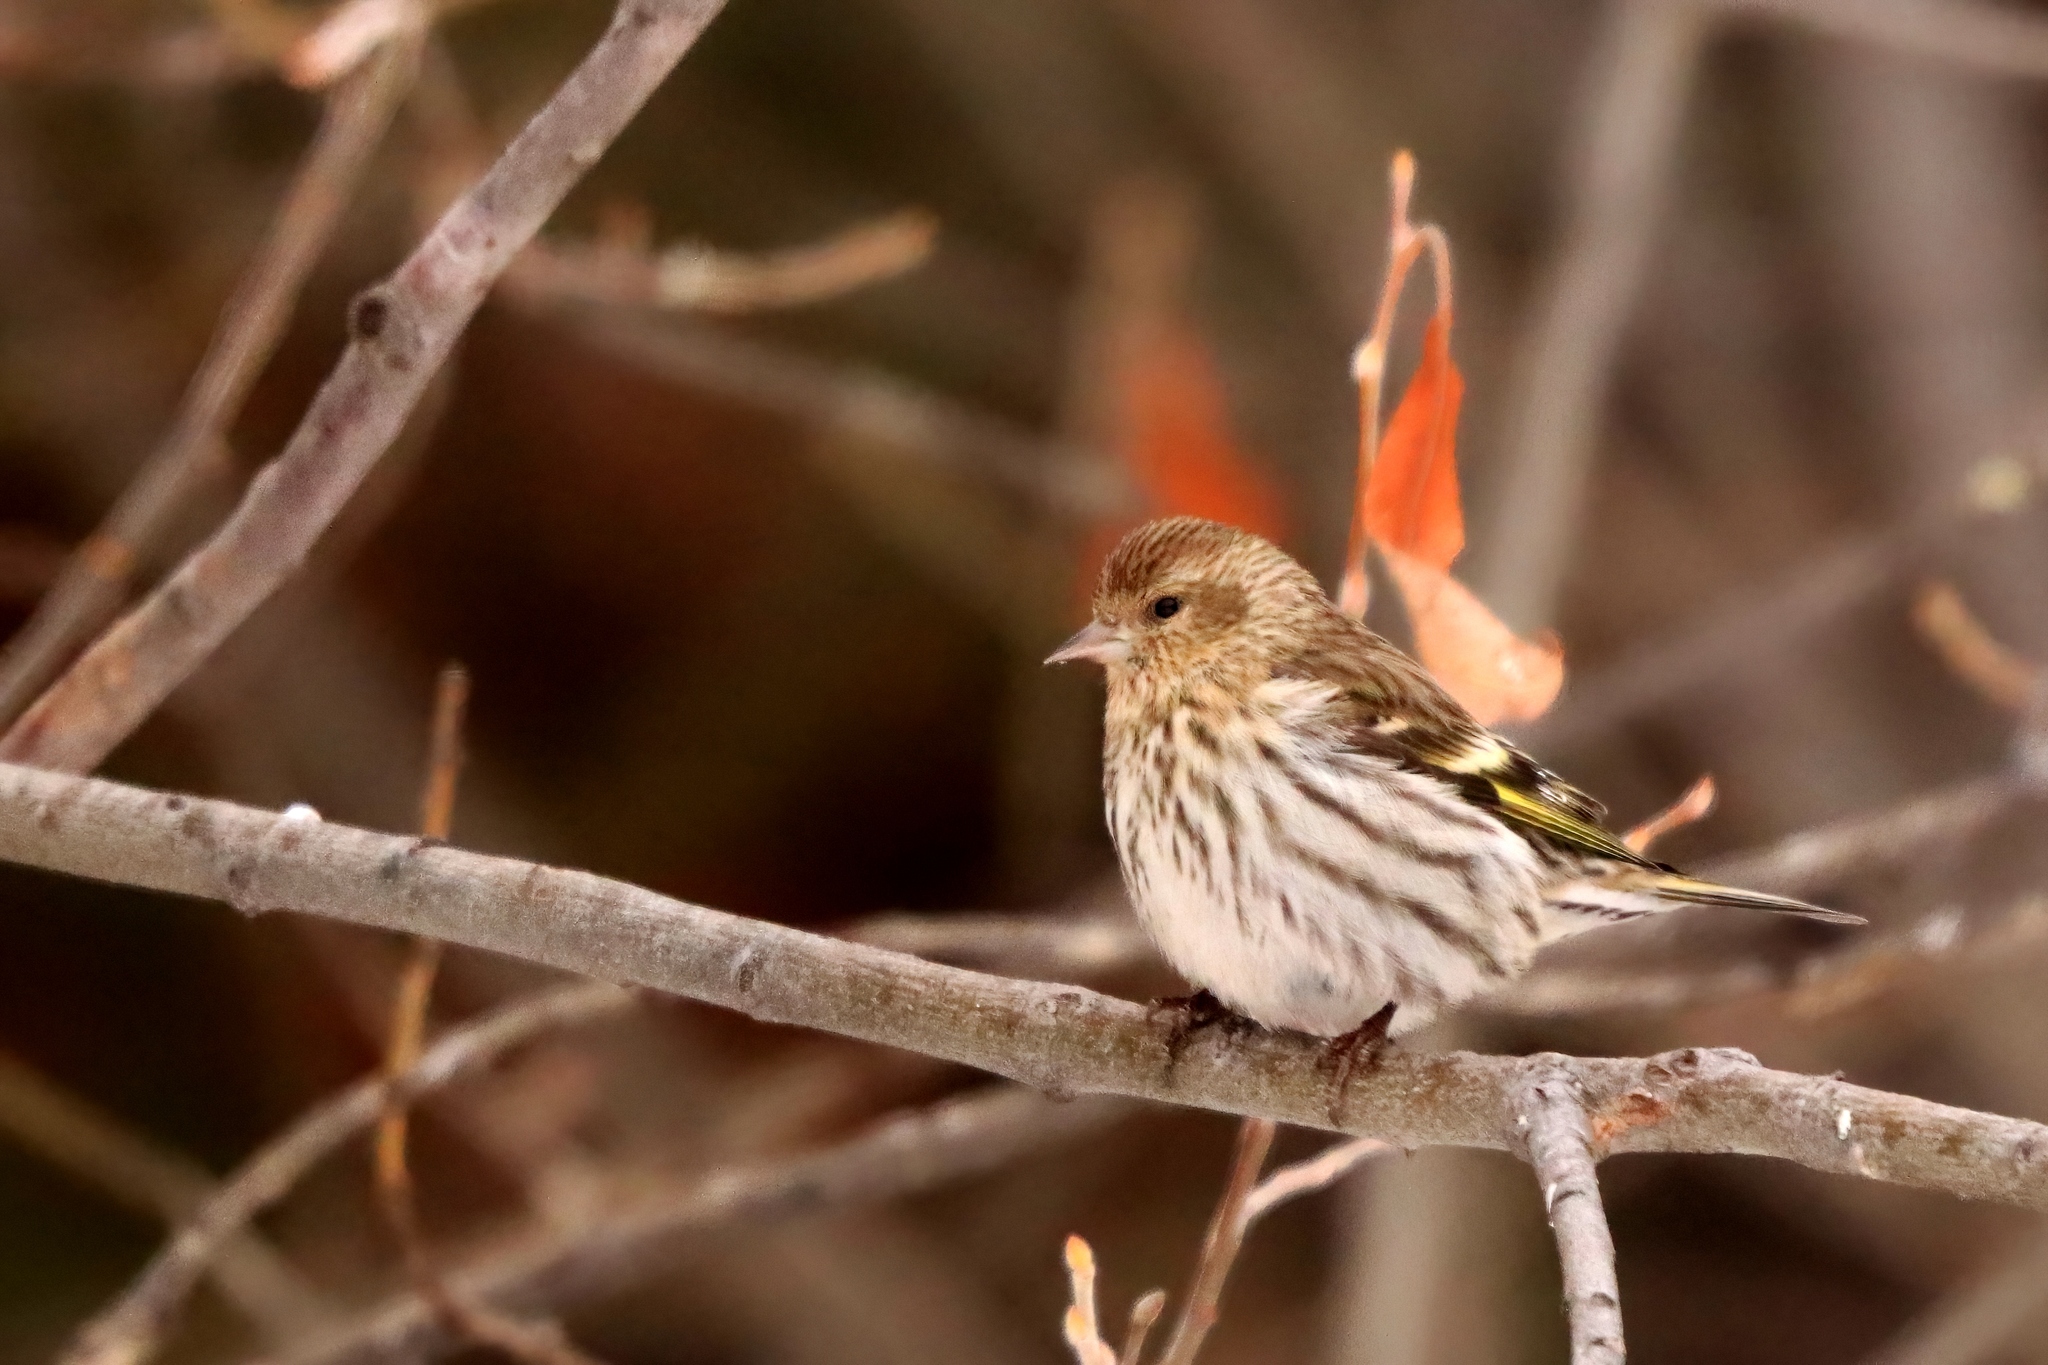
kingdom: Animalia
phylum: Chordata
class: Aves
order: Passeriformes
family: Fringillidae
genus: Spinus
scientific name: Spinus pinus
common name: Pine siskin
